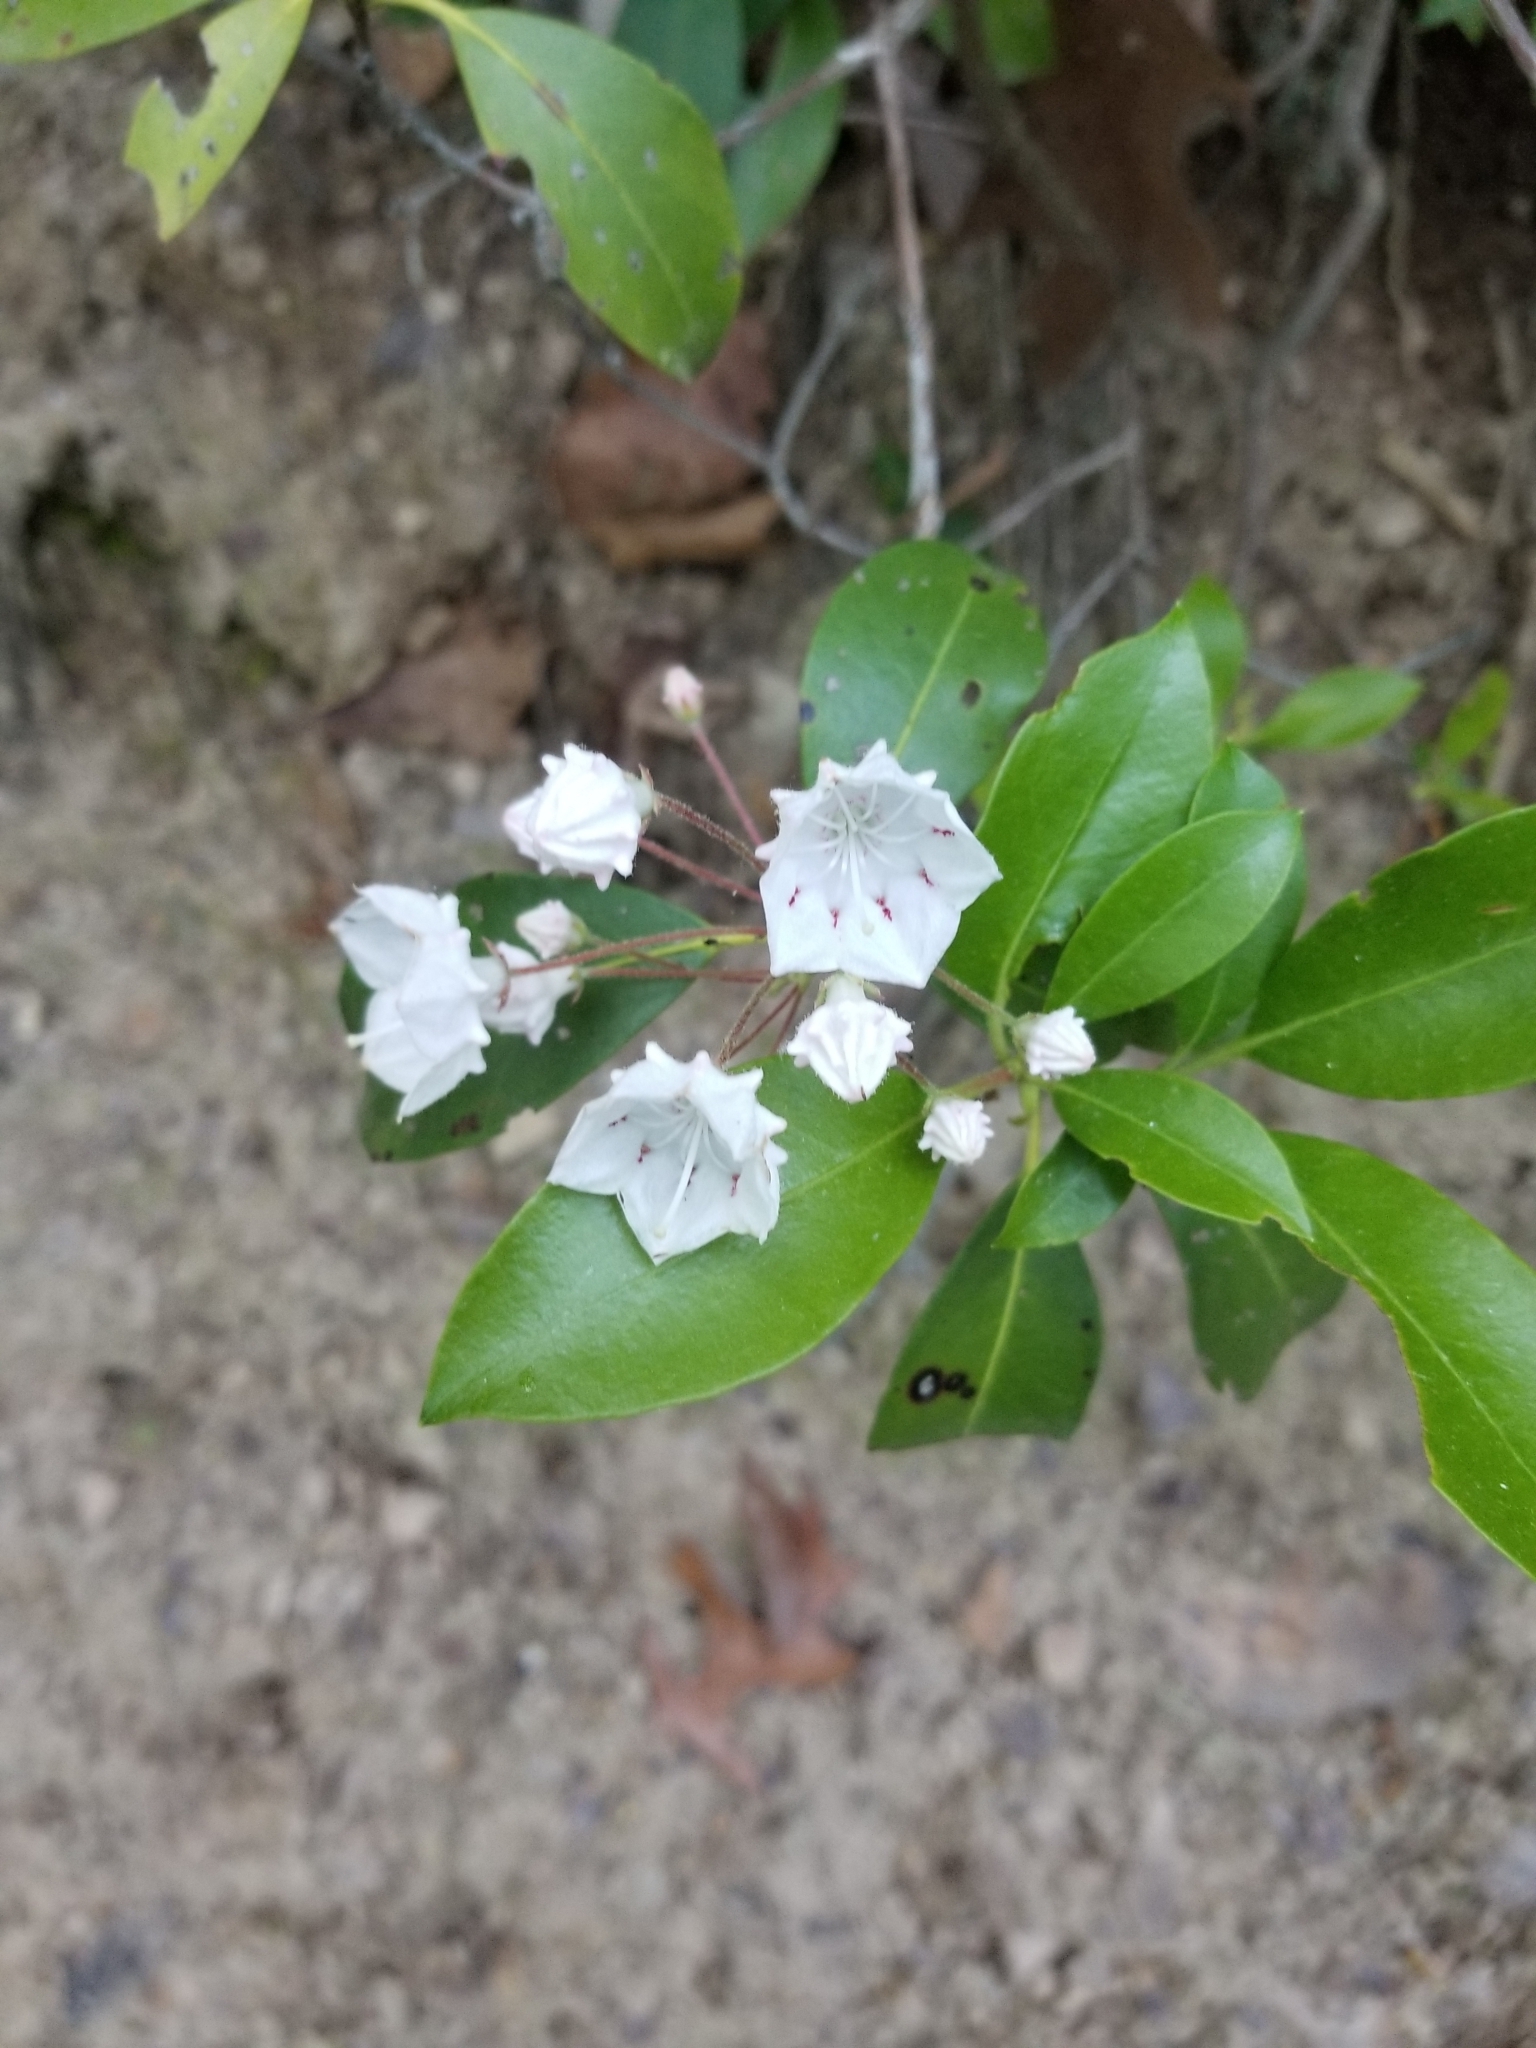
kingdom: Plantae
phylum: Tracheophyta
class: Magnoliopsida
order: Ericales
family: Ericaceae
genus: Kalmia
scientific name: Kalmia latifolia
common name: Mountain-laurel
